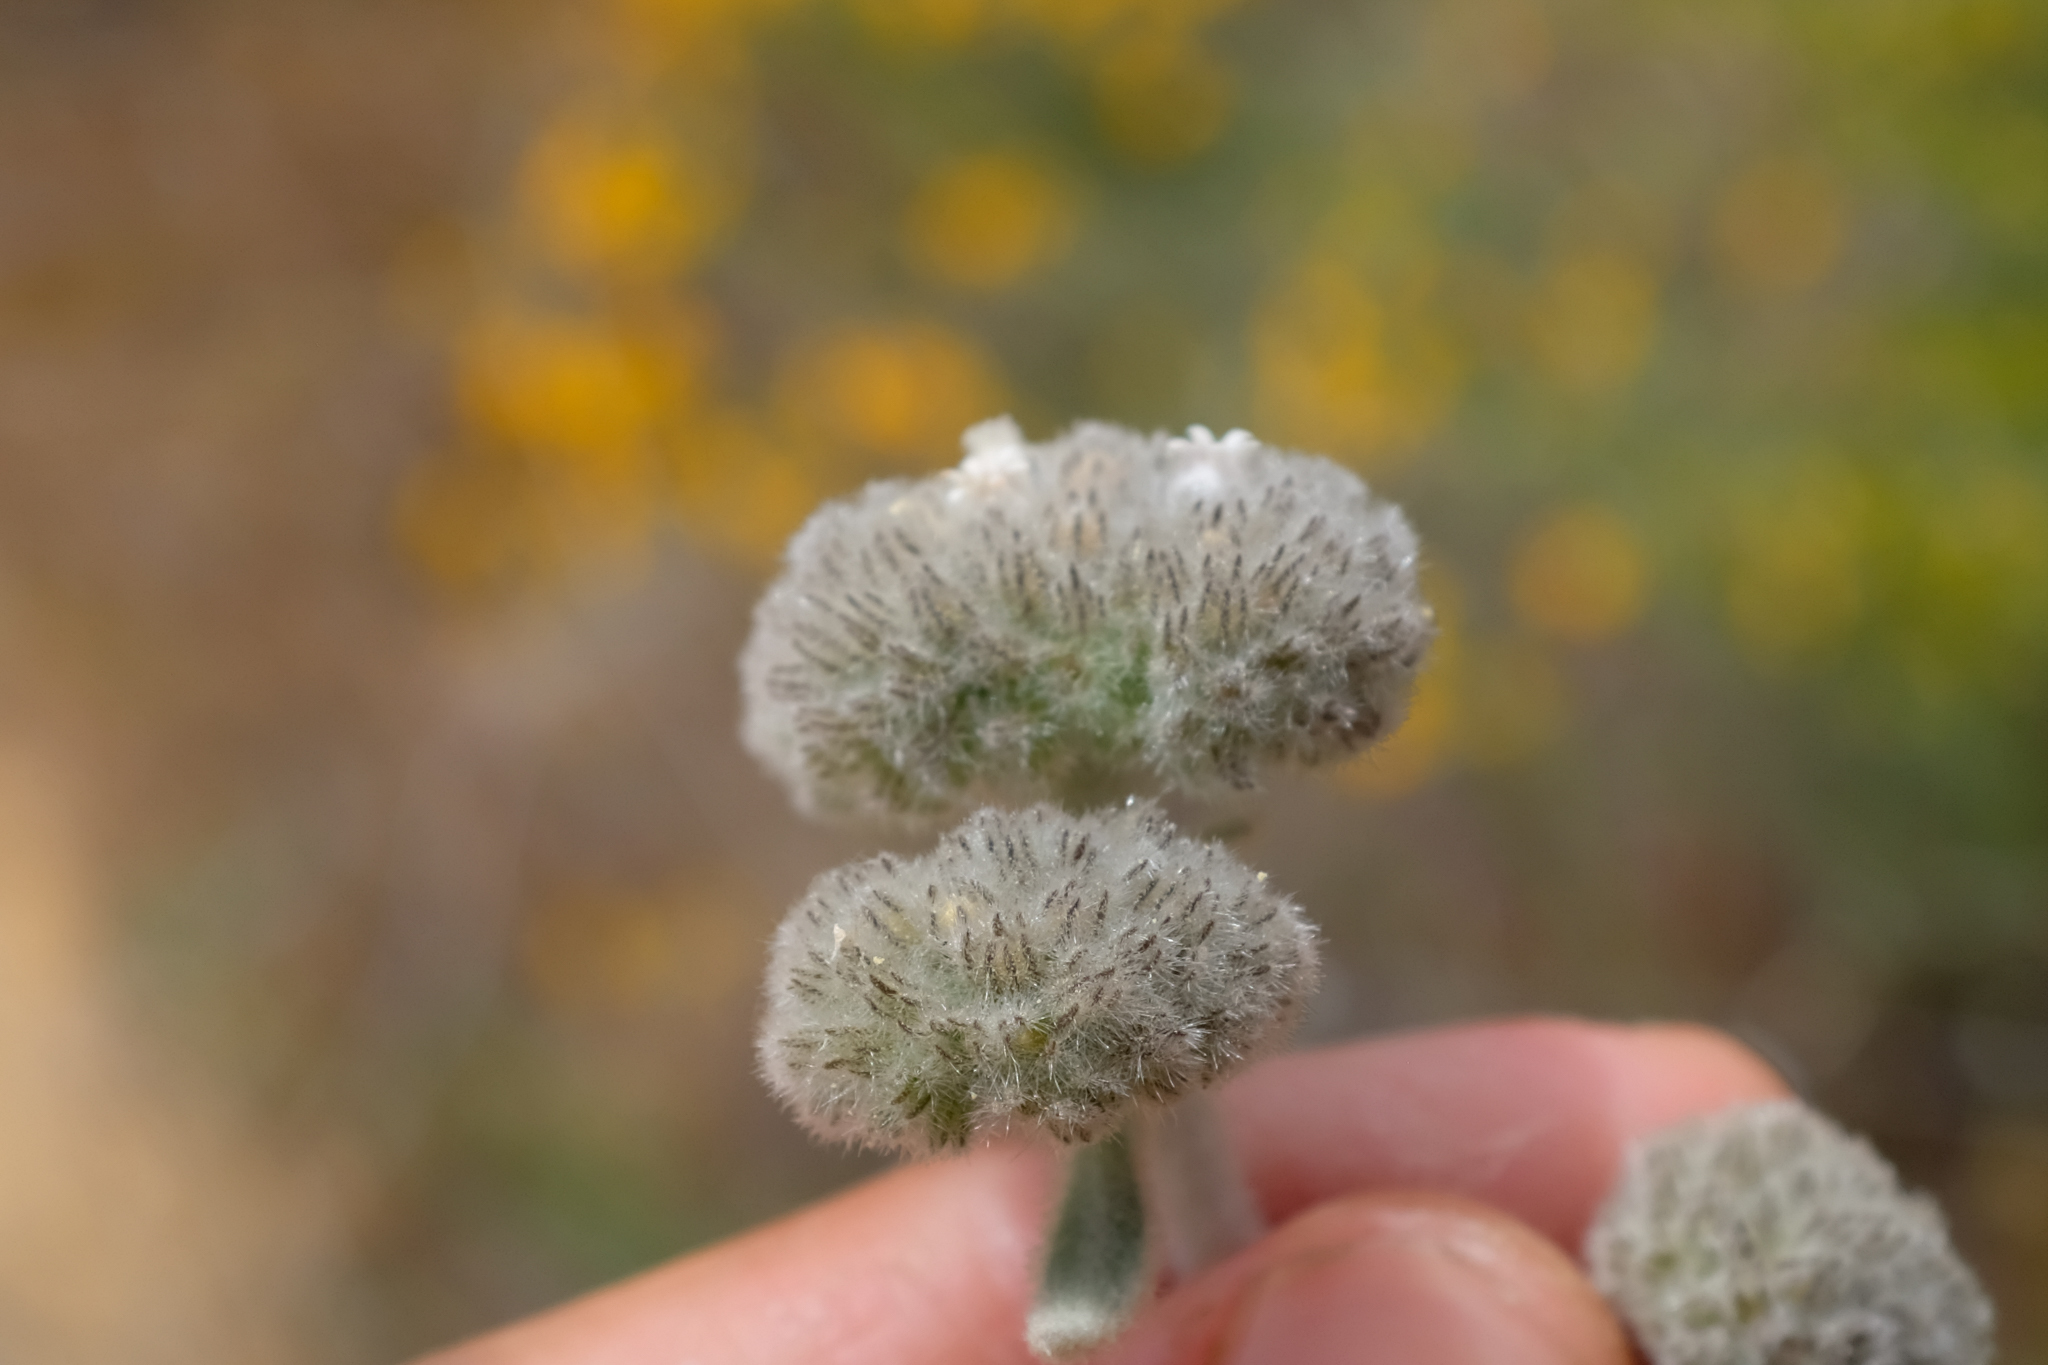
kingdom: Plantae
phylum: Tracheophyta
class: Magnoliopsida
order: Boraginales
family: Namaceae
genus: Eriodictyon
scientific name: Eriodictyon tomentosum
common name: Woolly yerba-santa
